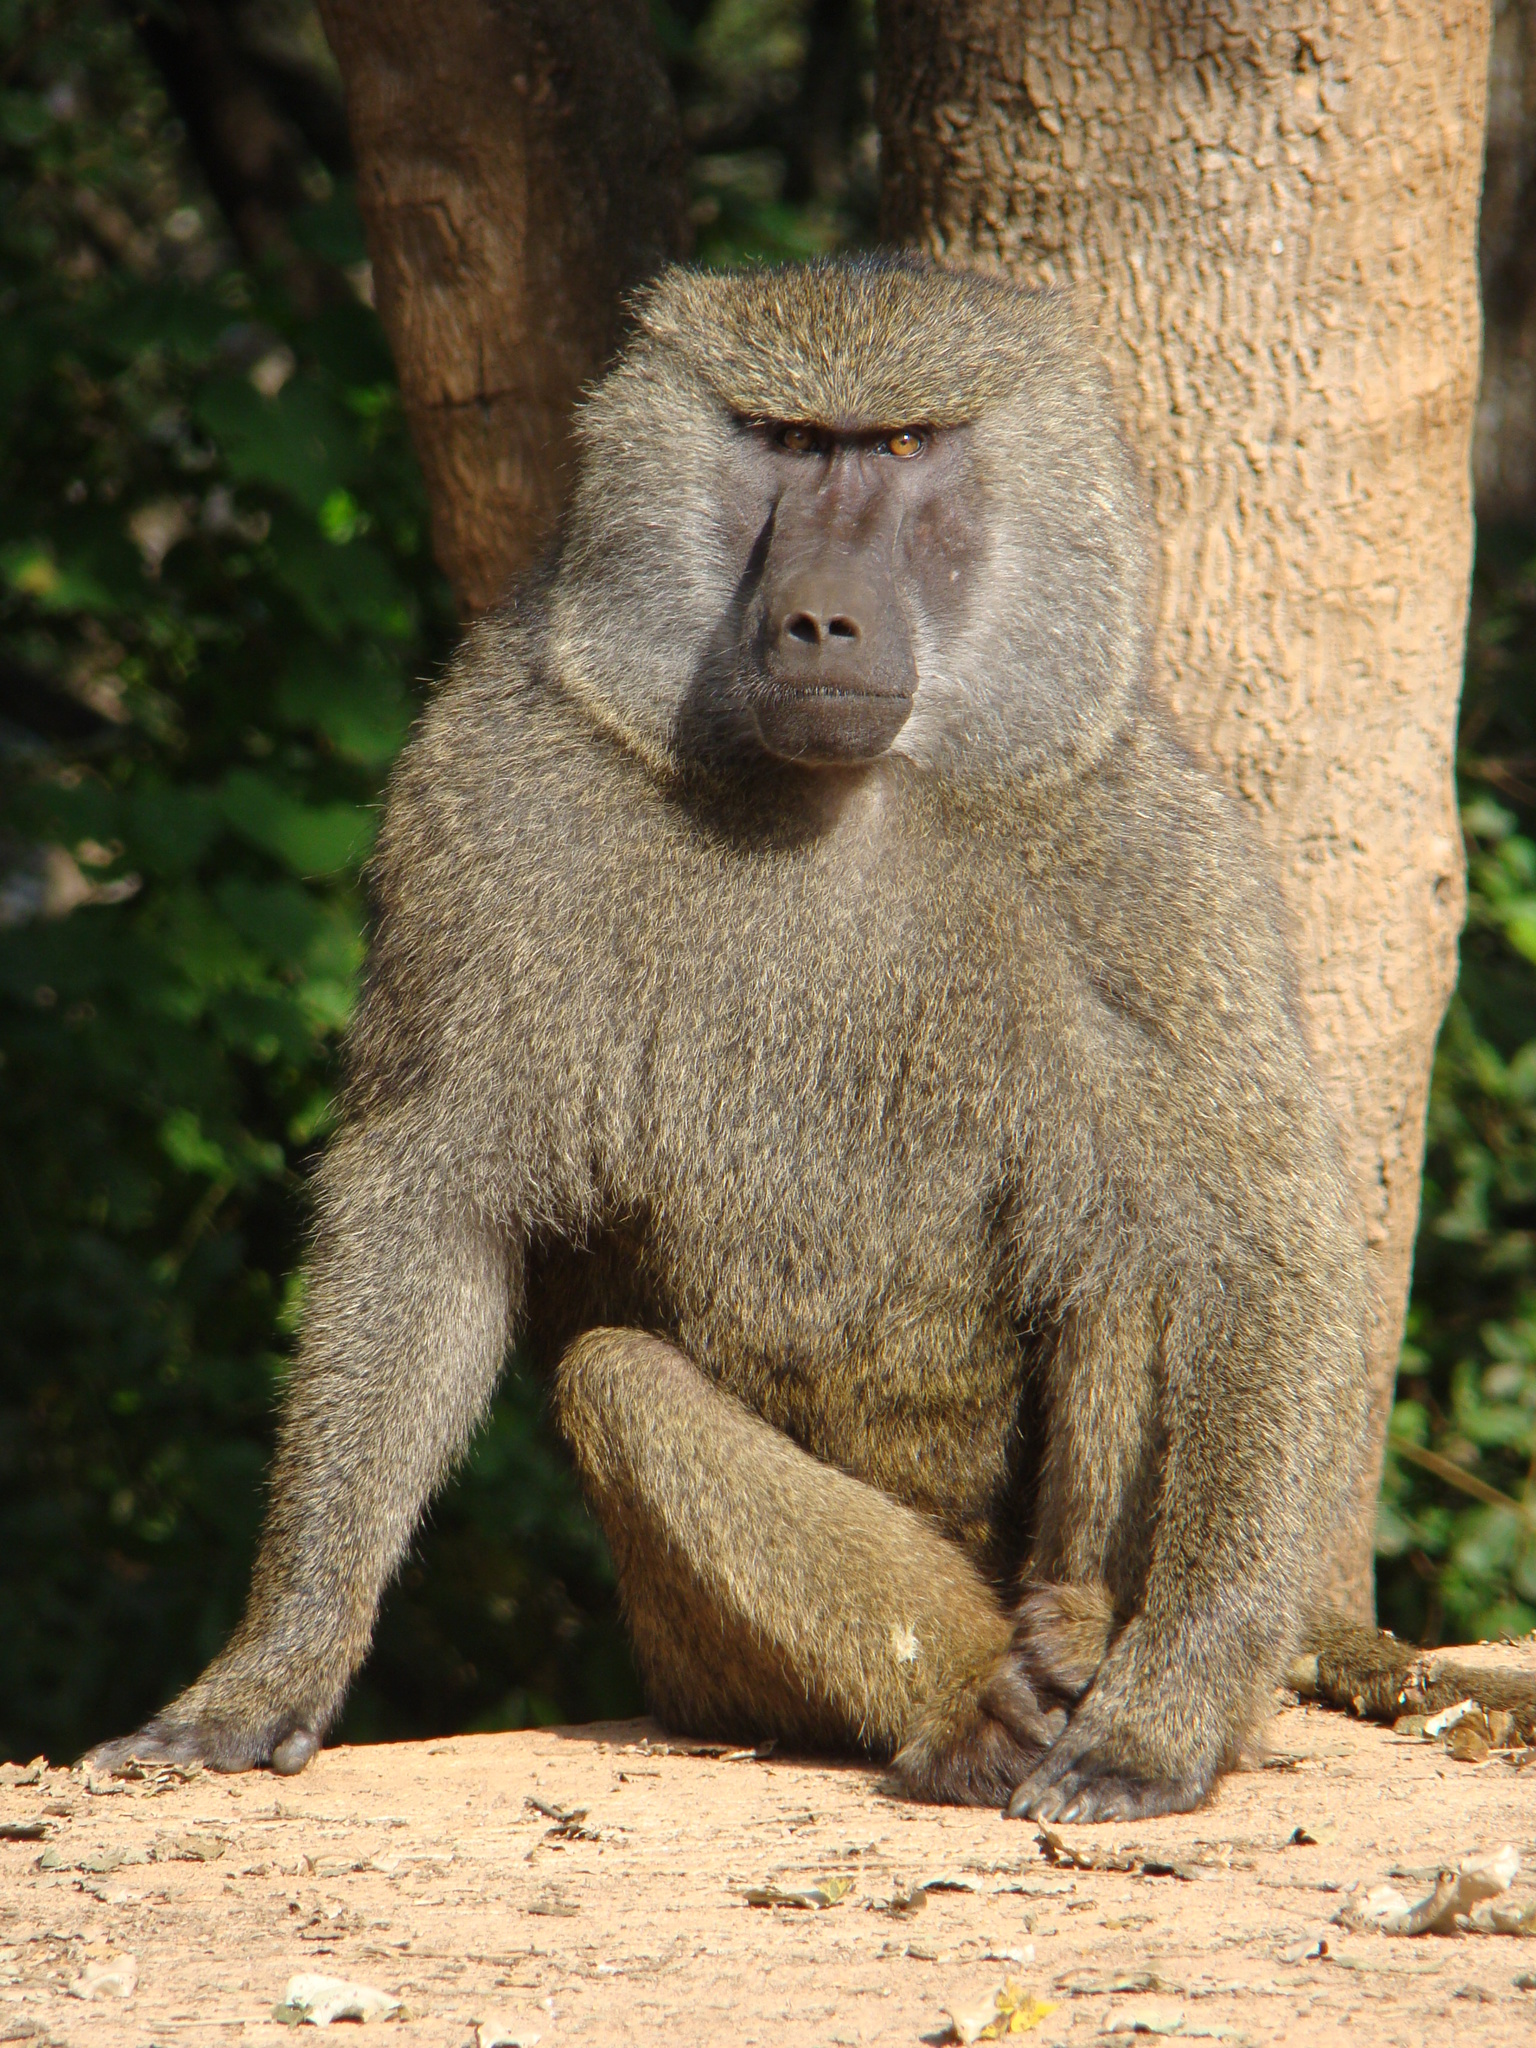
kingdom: Animalia
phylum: Chordata
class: Mammalia
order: Primates
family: Cercopithecidae
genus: Papio
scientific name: Papio anubis
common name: Olive baboon
